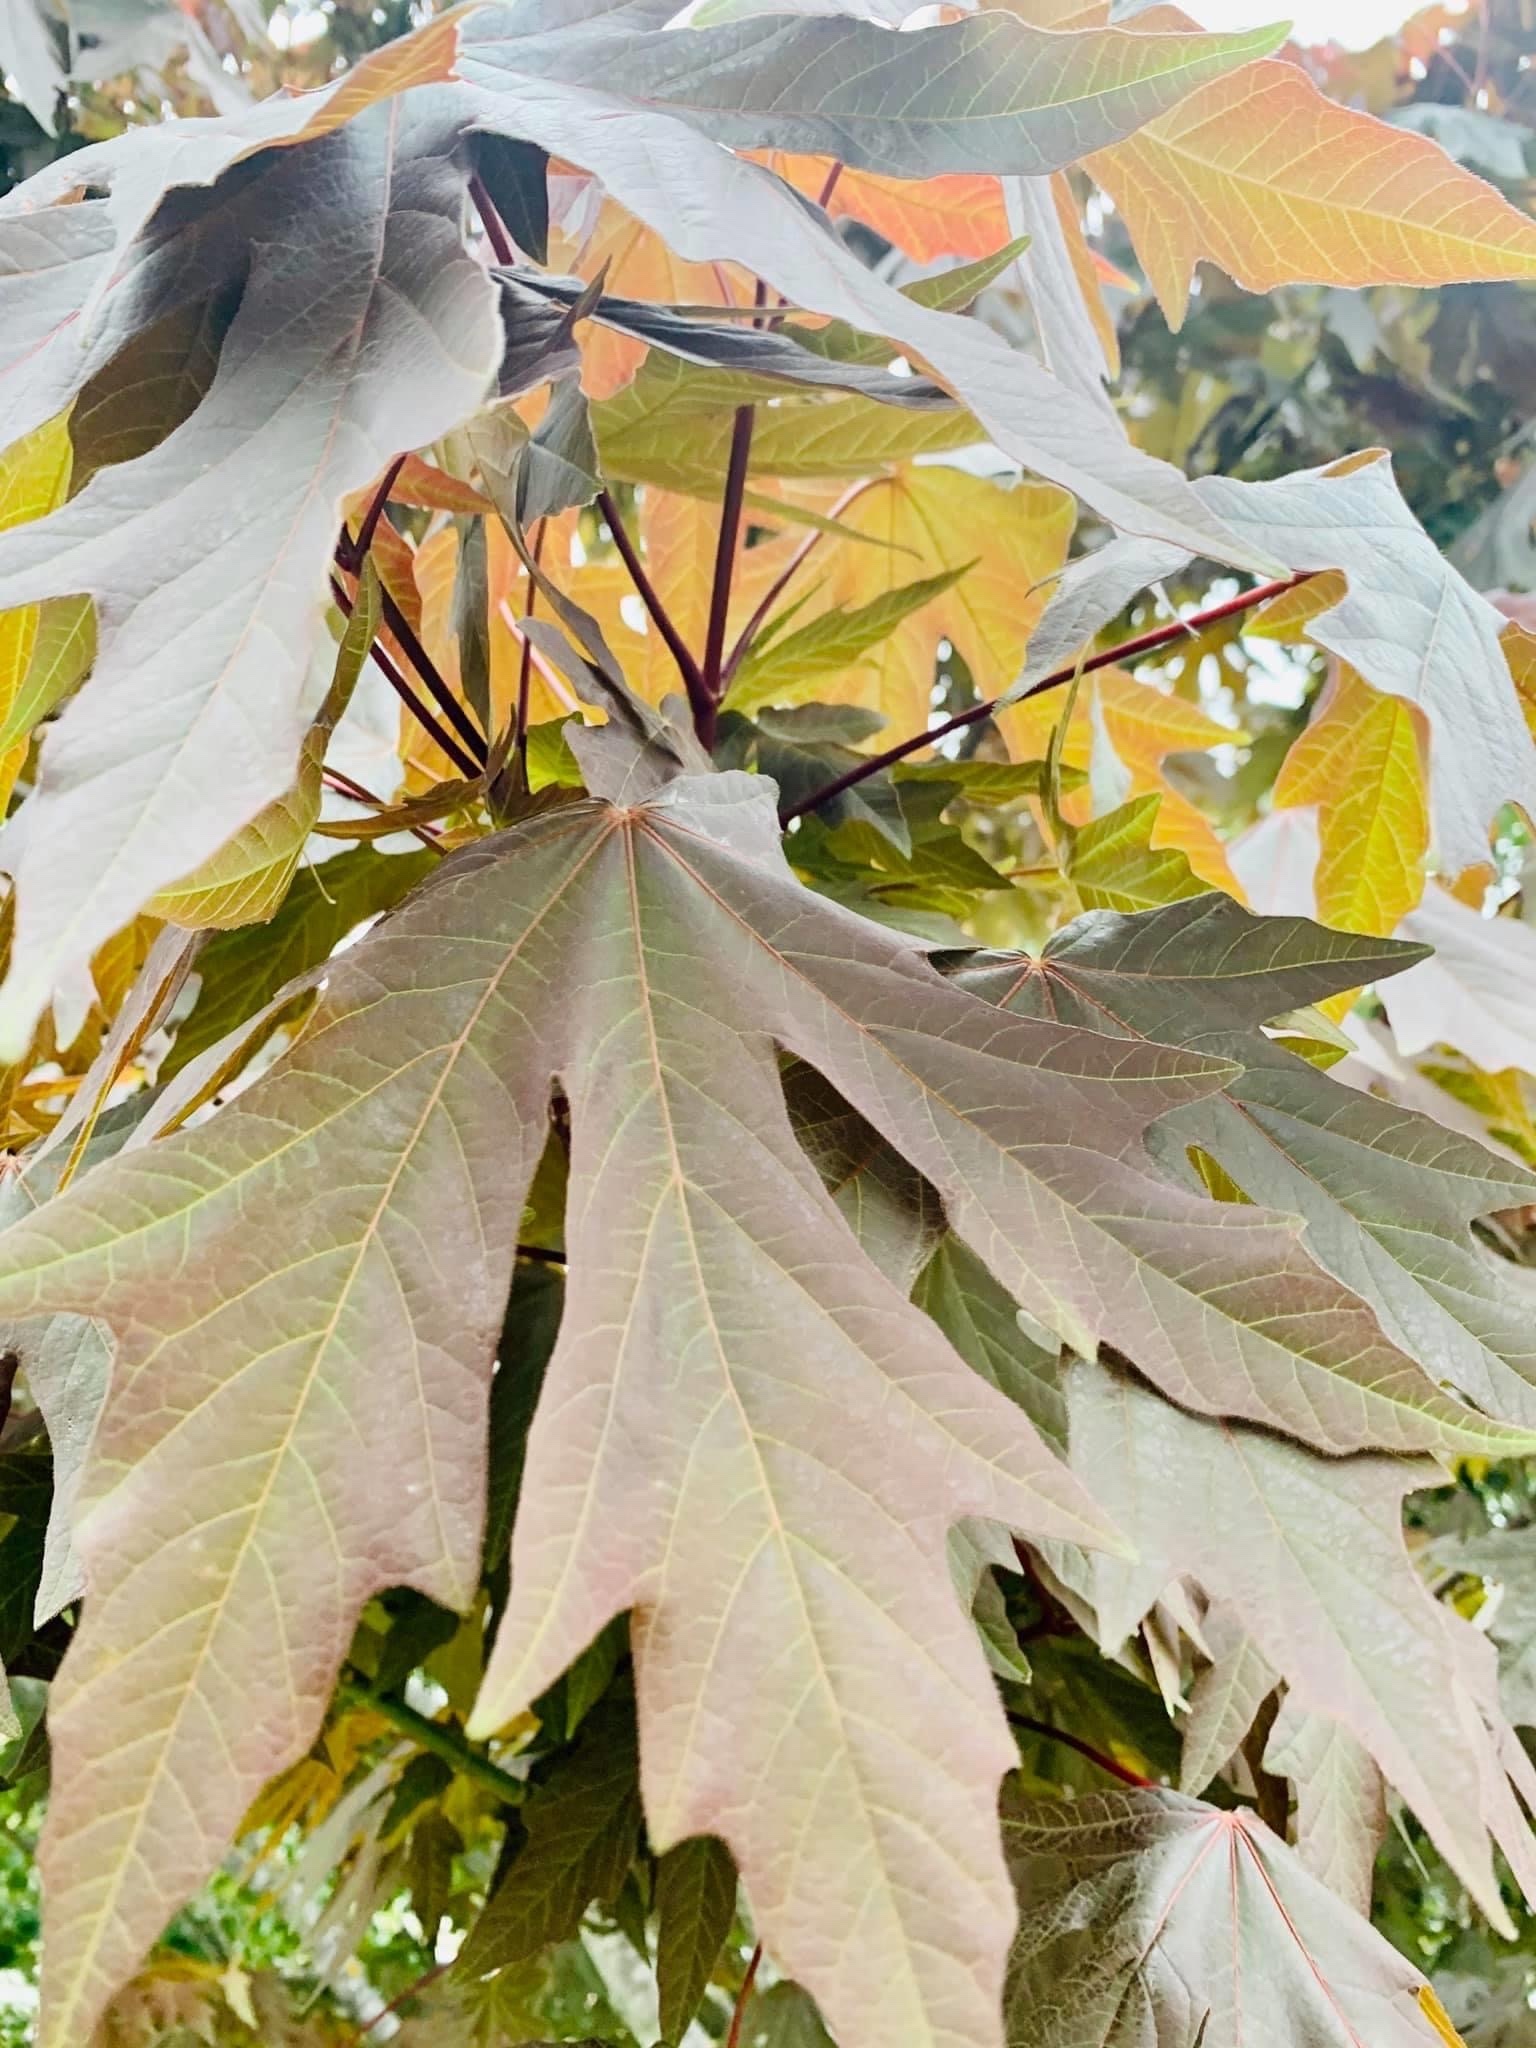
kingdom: Plantae
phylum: Tracheophyta
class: Magnoliopsida
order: Sapindales
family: Sapindaceae
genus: Acer
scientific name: Acer macrophyllum
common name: Oregon maple
